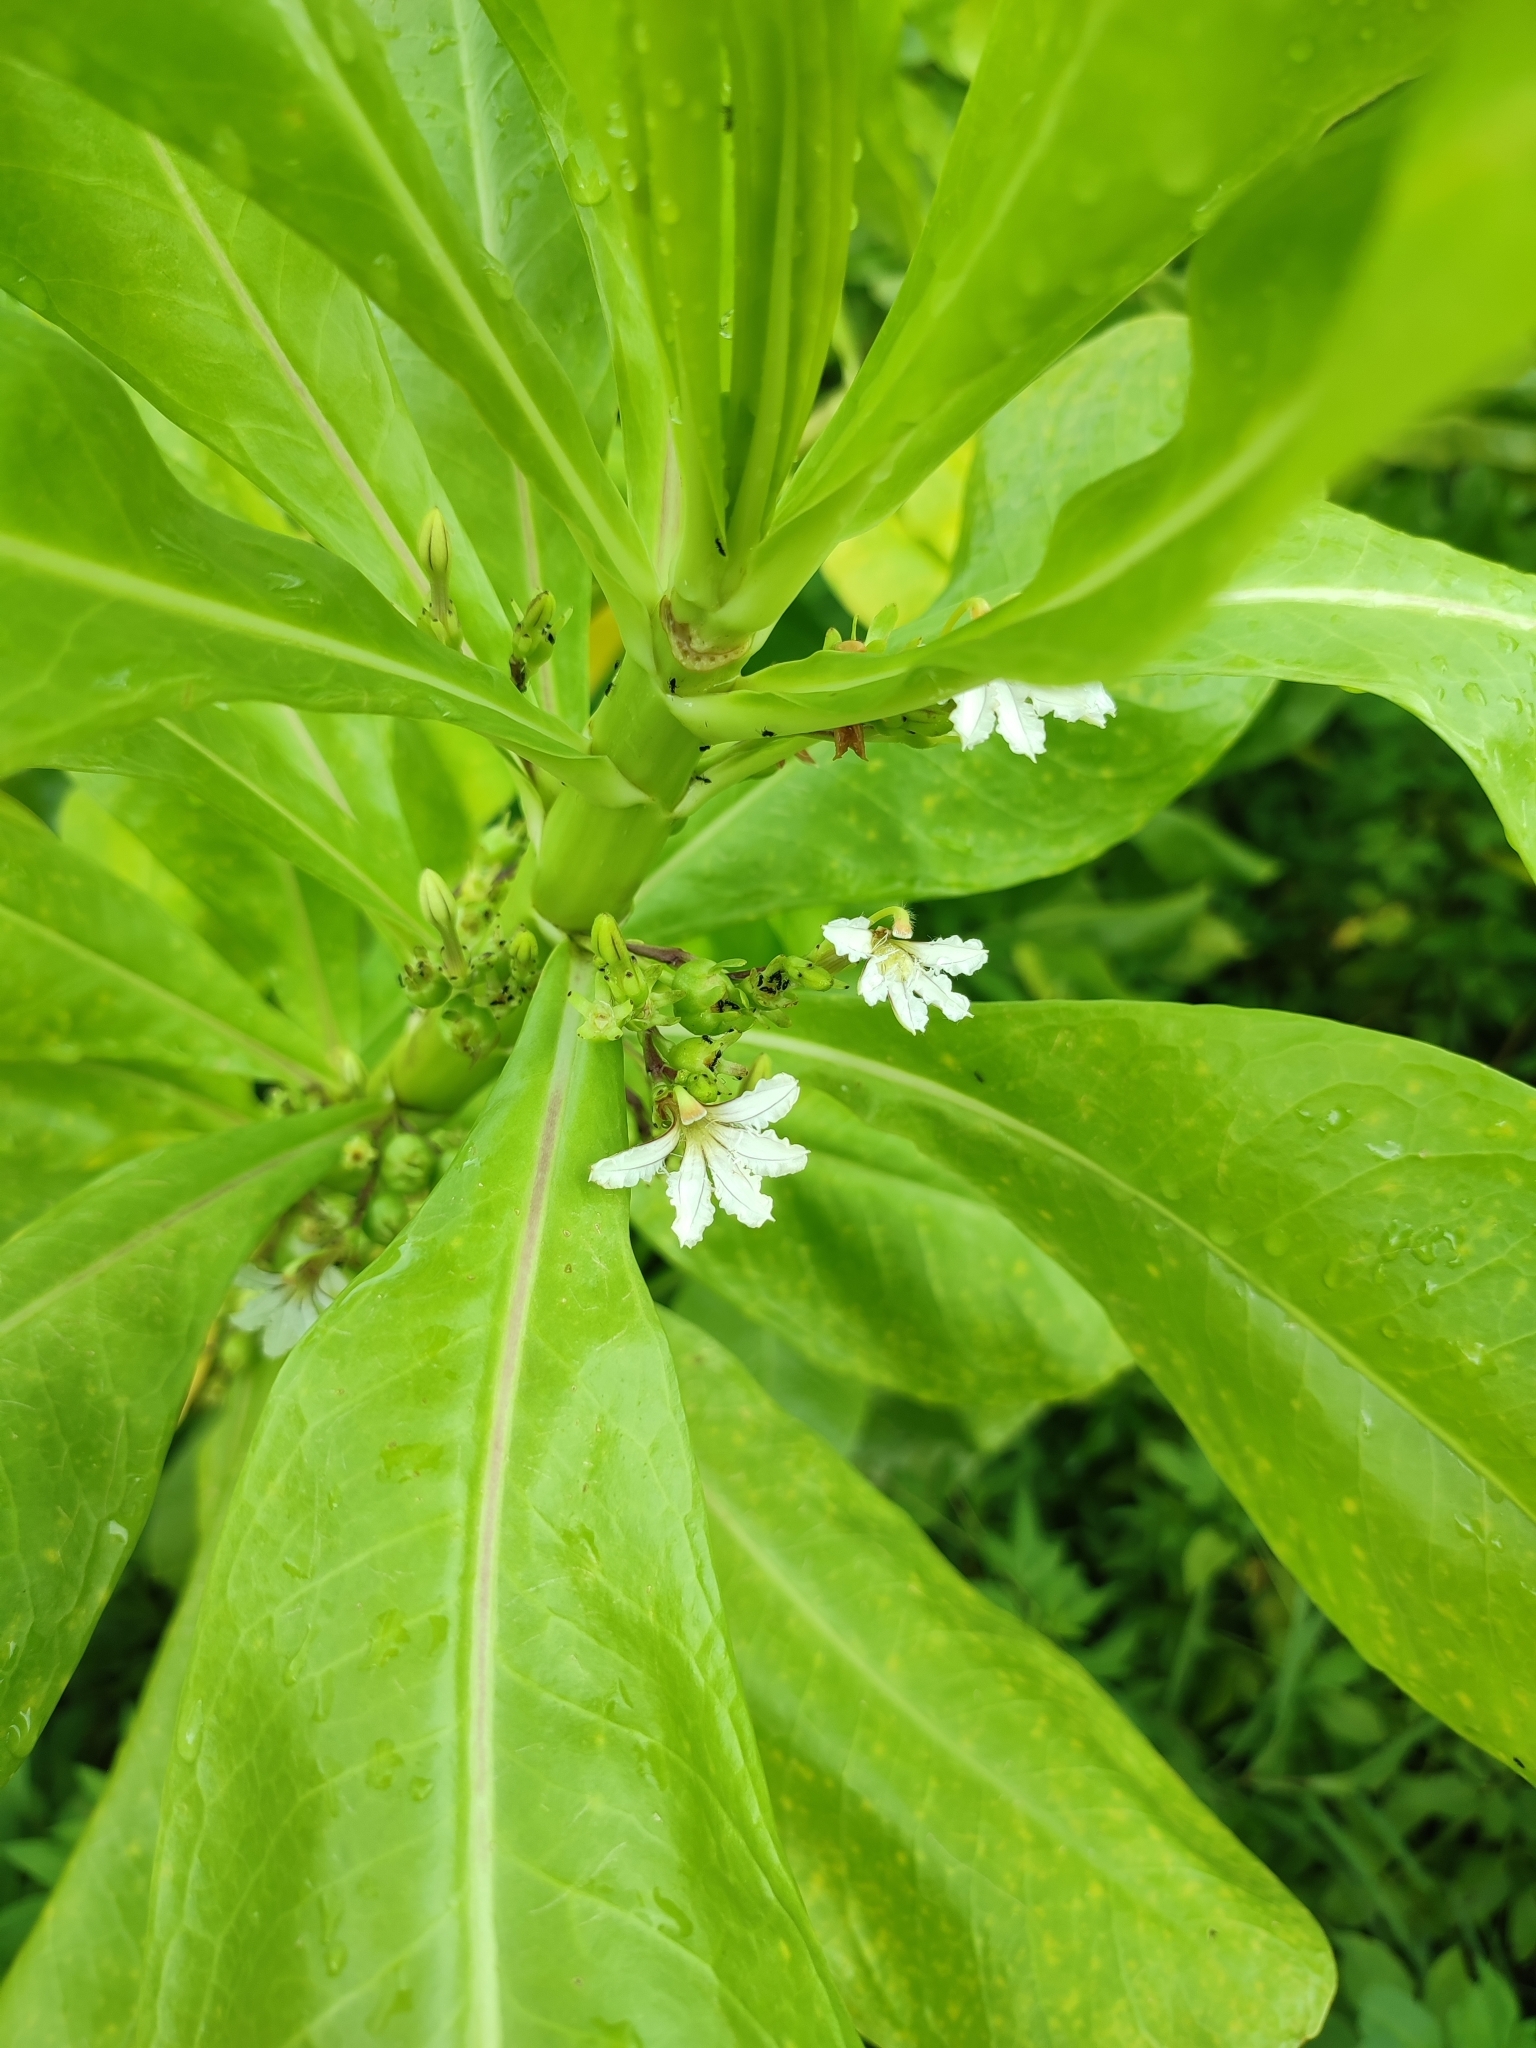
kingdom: Plantae
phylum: Tracheophyta
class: Magnoliopsida
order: Asterales
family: Goodeniaceae
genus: Scaevola
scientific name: Scaevola taccada
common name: Sea lettucetree
